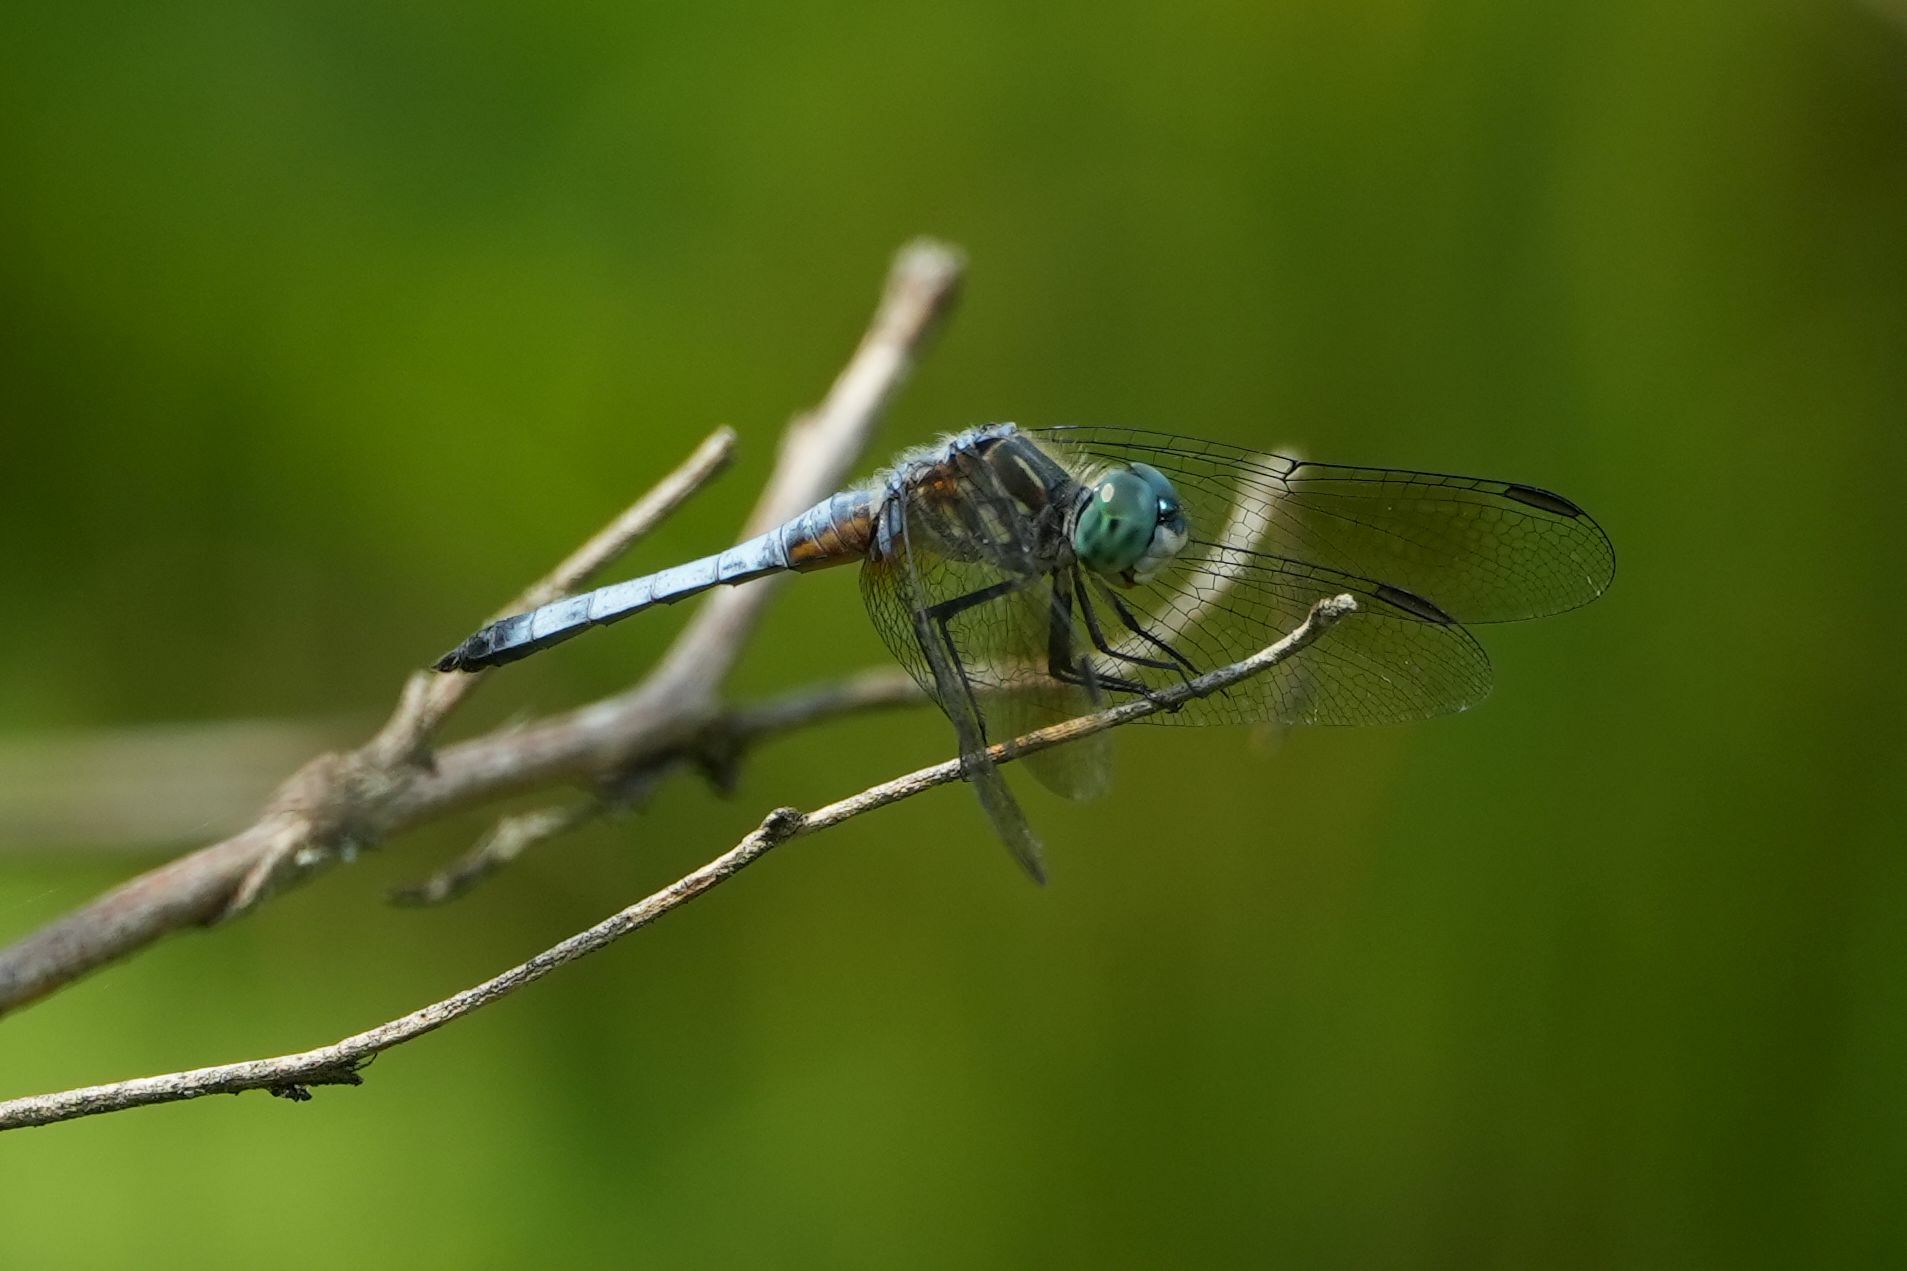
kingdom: Animalia
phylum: Arthropoda
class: Insecta
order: Odonata
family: Libellulidae
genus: Pachydiplax
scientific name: Pachydiplax longipennis
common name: Blue dasher
